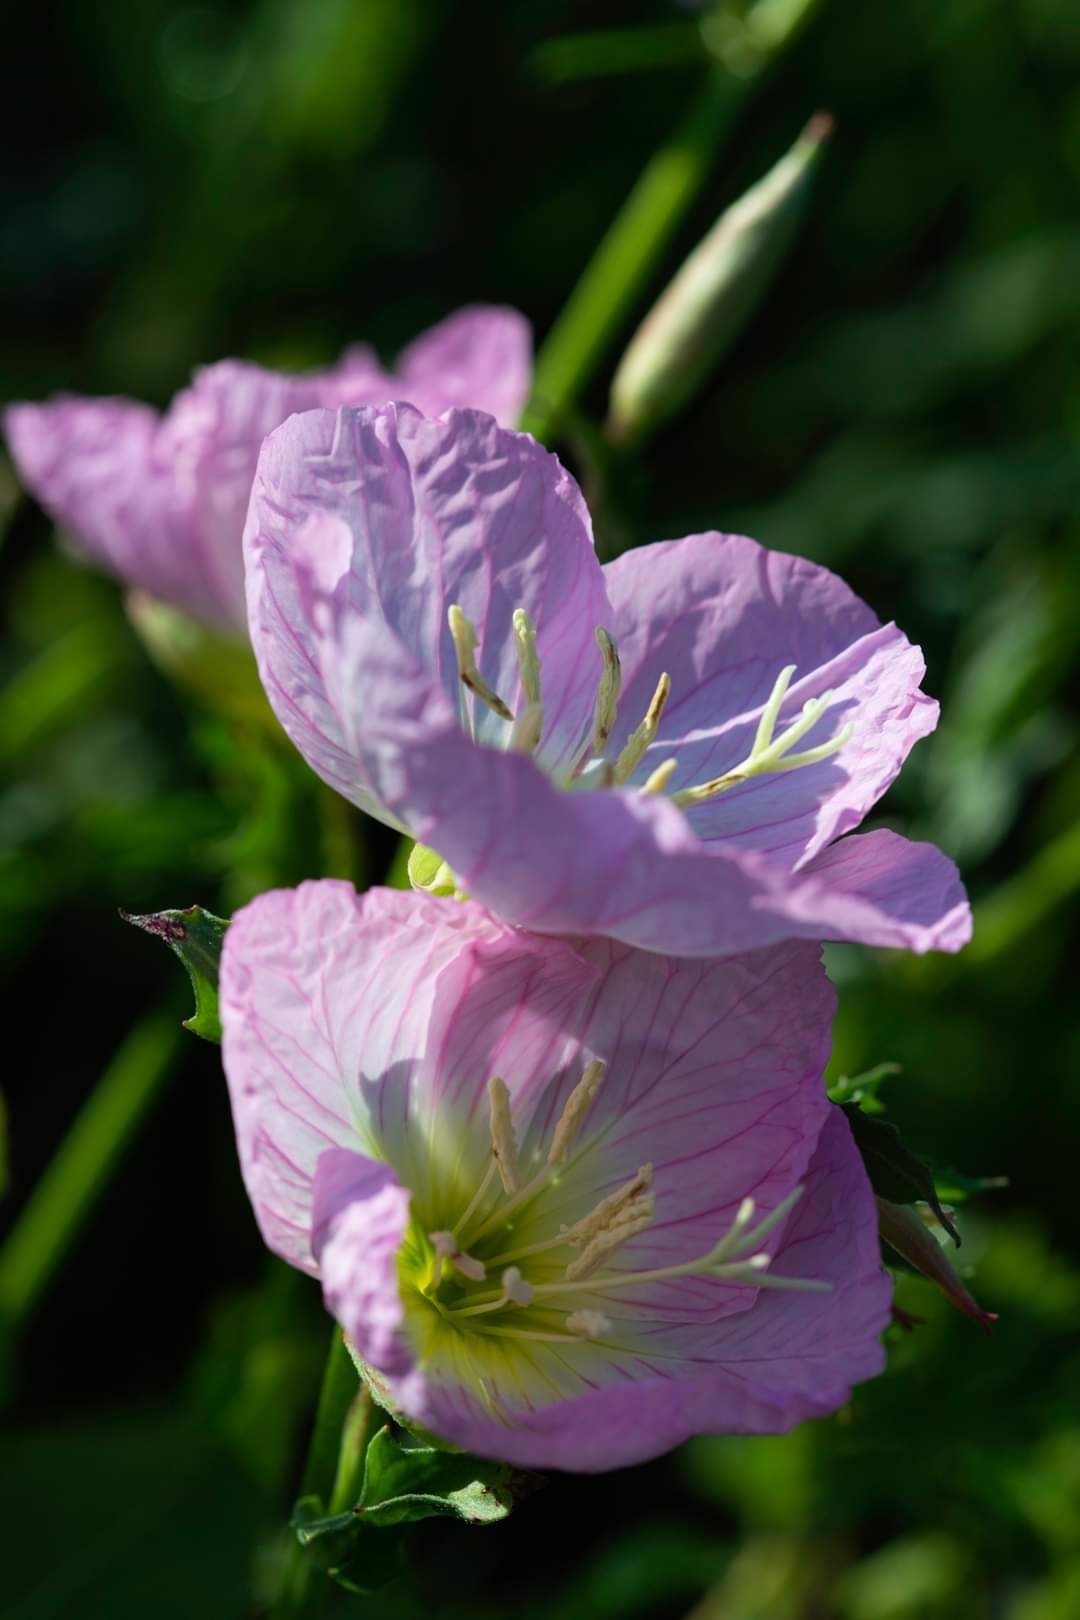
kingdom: Plantae
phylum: Tracheophyta
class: Magnoliopsida
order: Myrtales
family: Onagraceae
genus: Oenothera
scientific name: Oenothera speciosa
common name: White evening-primrose
